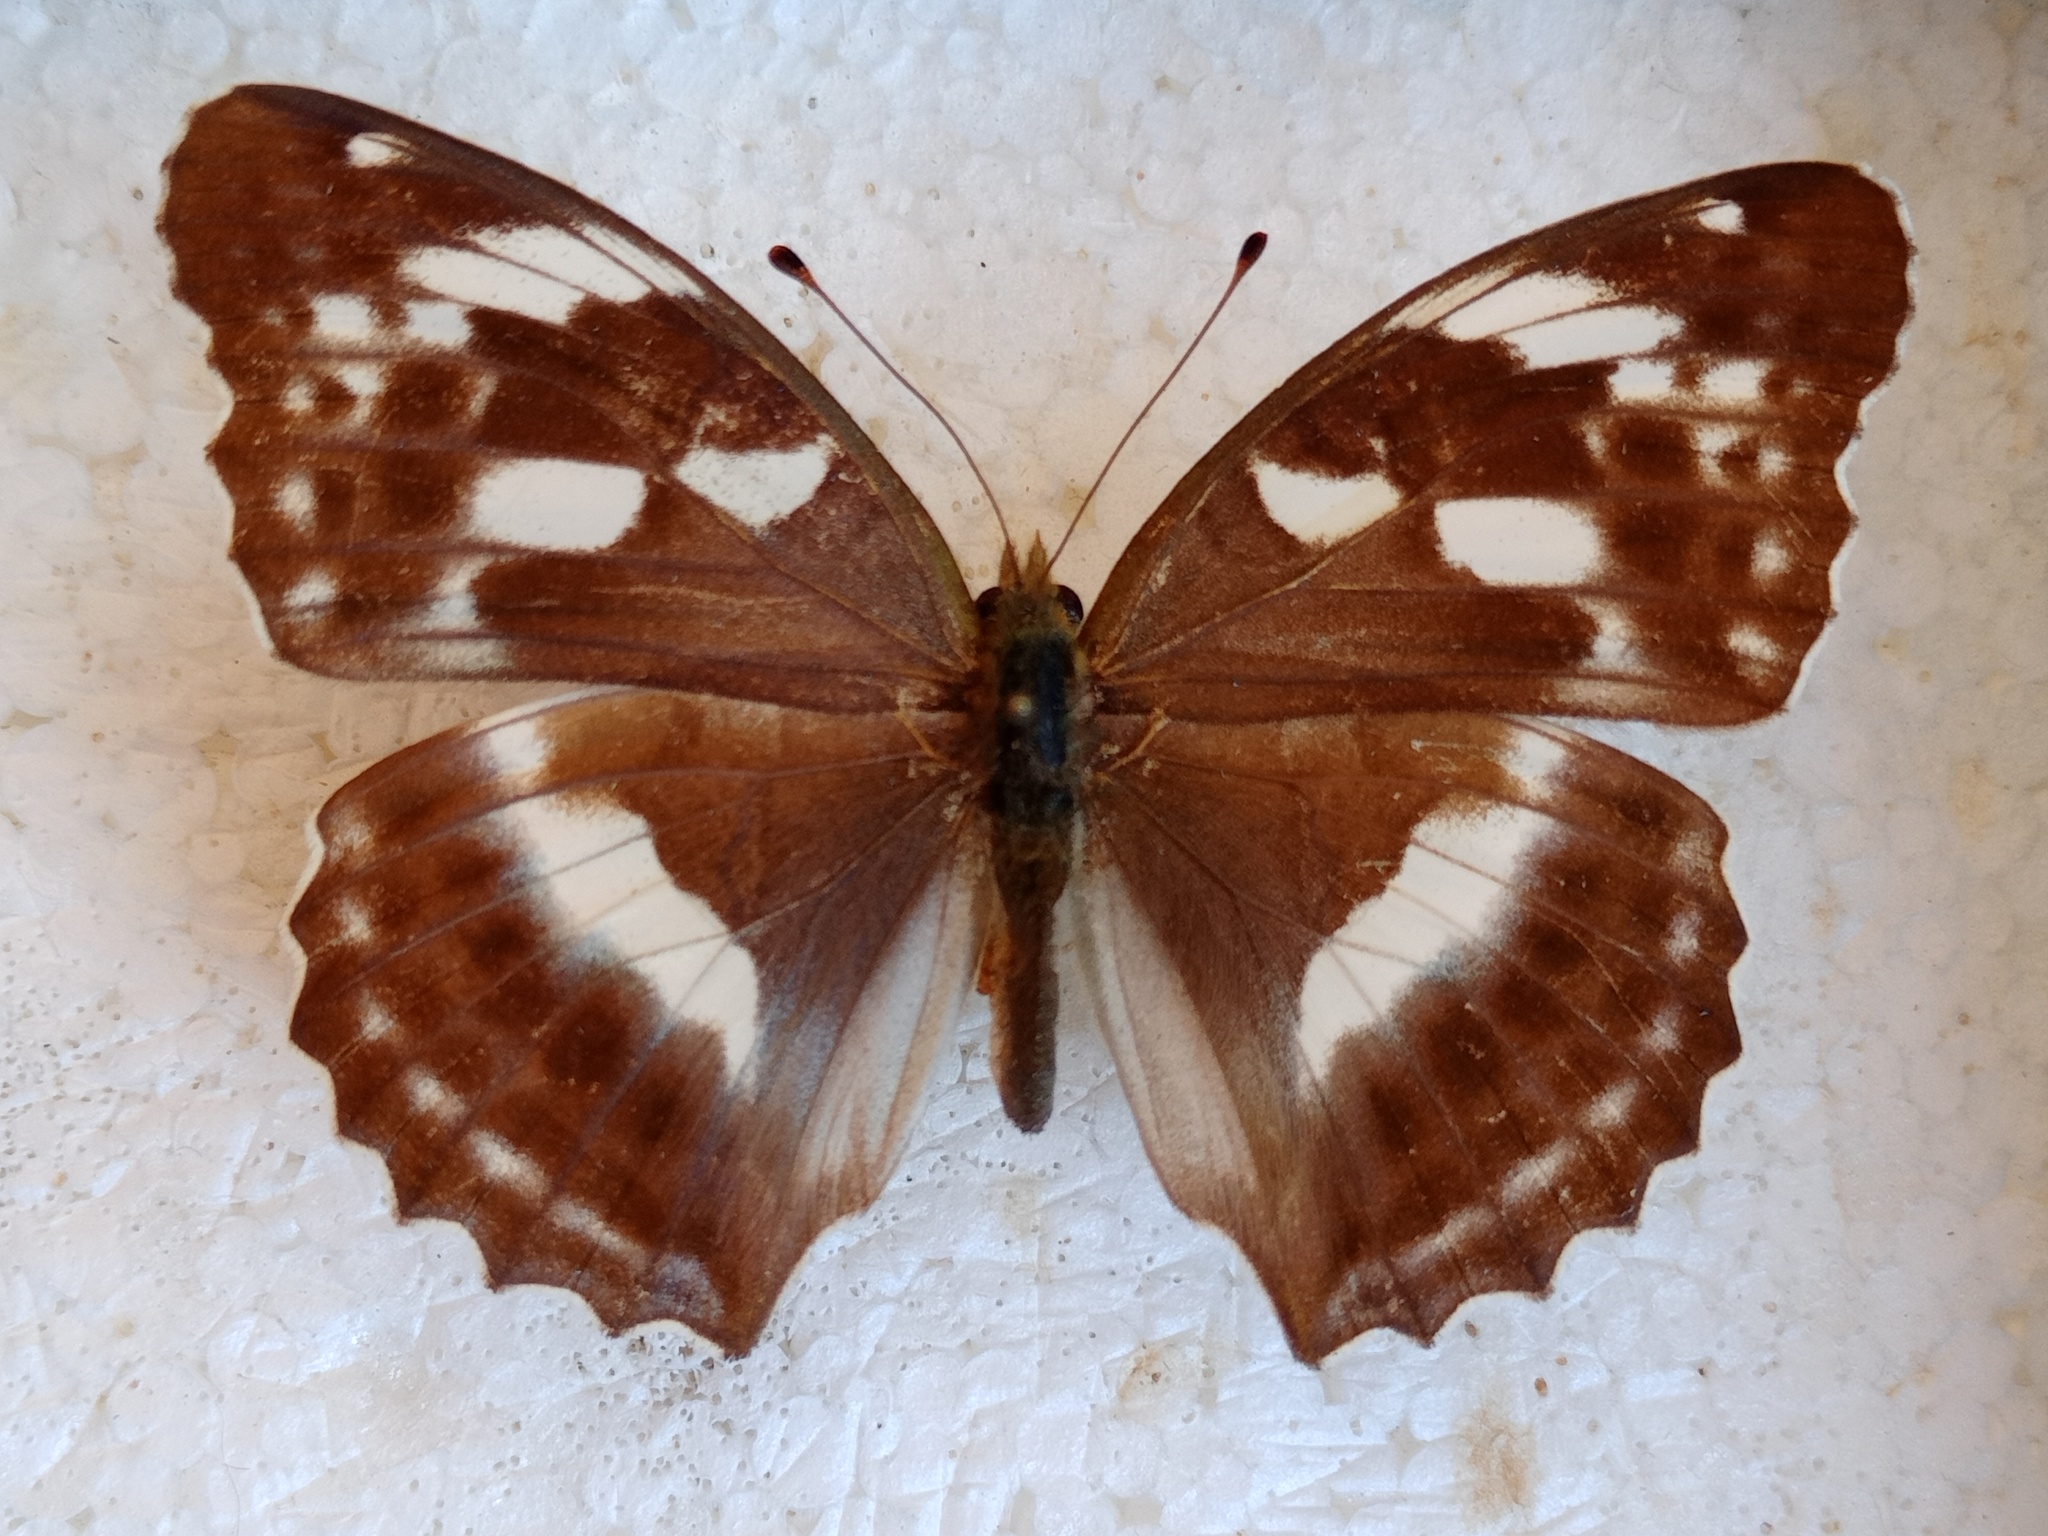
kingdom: Animalia
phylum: Arthropoda
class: Insecta
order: Lepidoptera
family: Nymphalidae
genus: Damora
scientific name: Damora sagana
